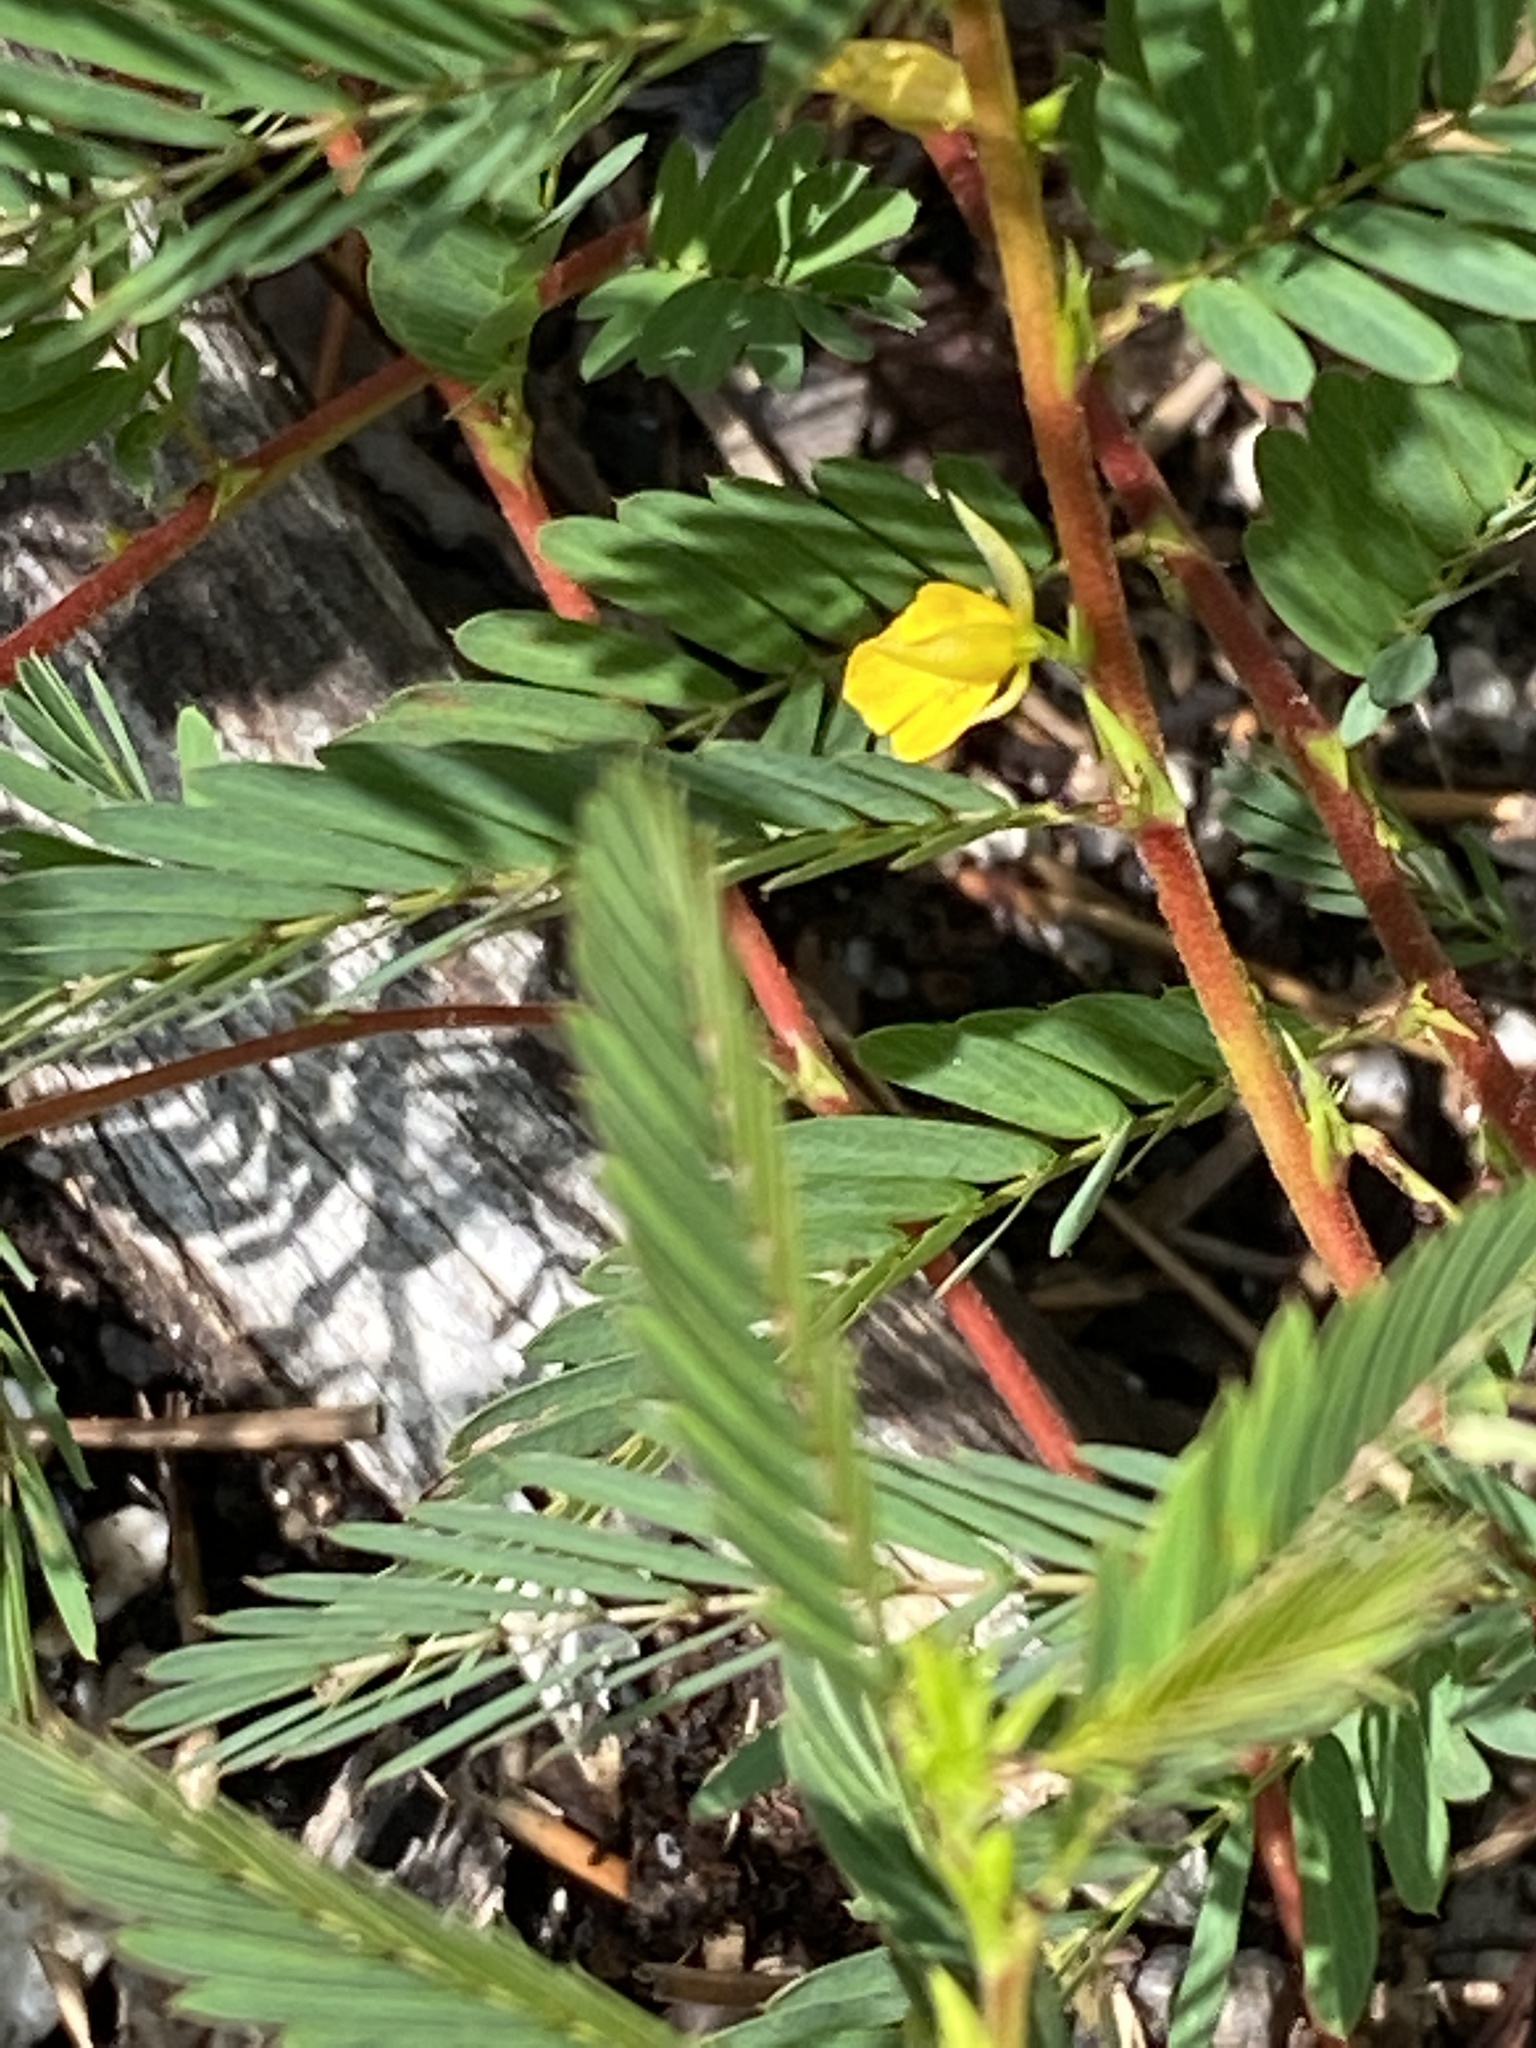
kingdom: Plantae
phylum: Tracheophyta
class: Magnoliopsida
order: Fabales
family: Fabaceae
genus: Chamaecrista
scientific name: Chamaecrista nictitans
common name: Sensitive cassia
